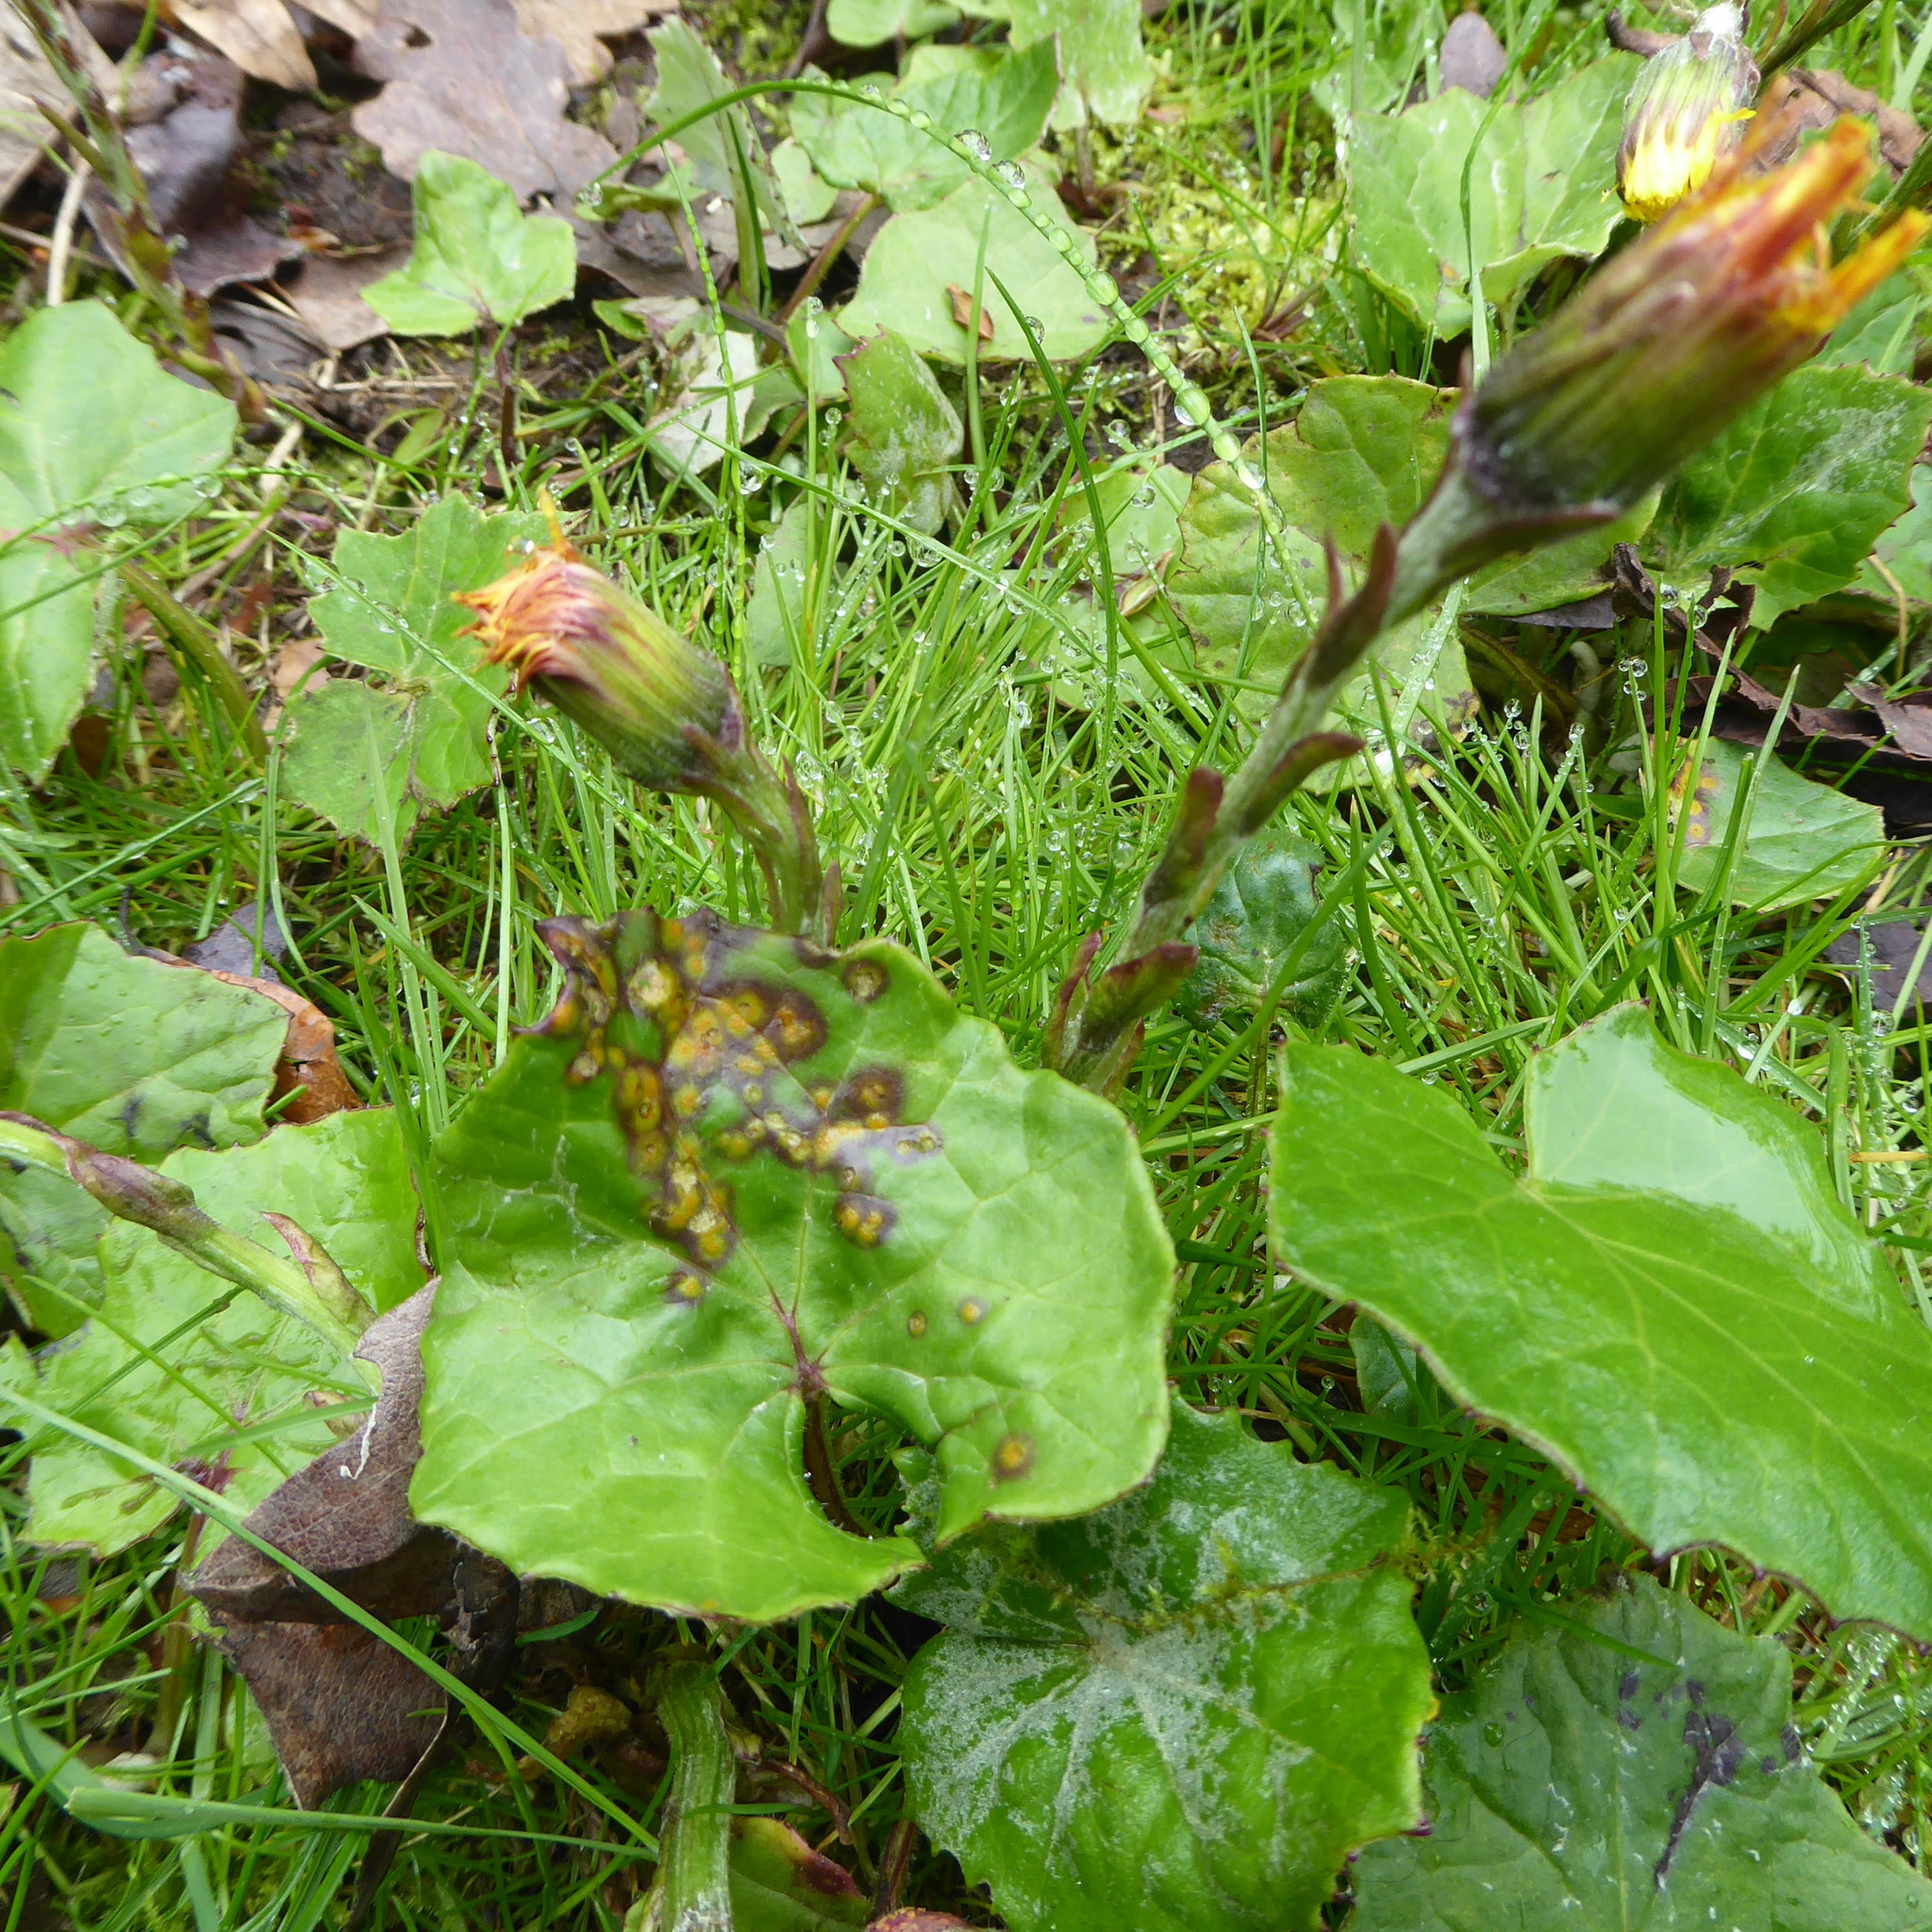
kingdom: Fungi
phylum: Basidiomycota
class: Pucciniomycetes
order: Pucciniales
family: Pucciniaceae
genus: Puccinia
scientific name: Puccinia poarum
